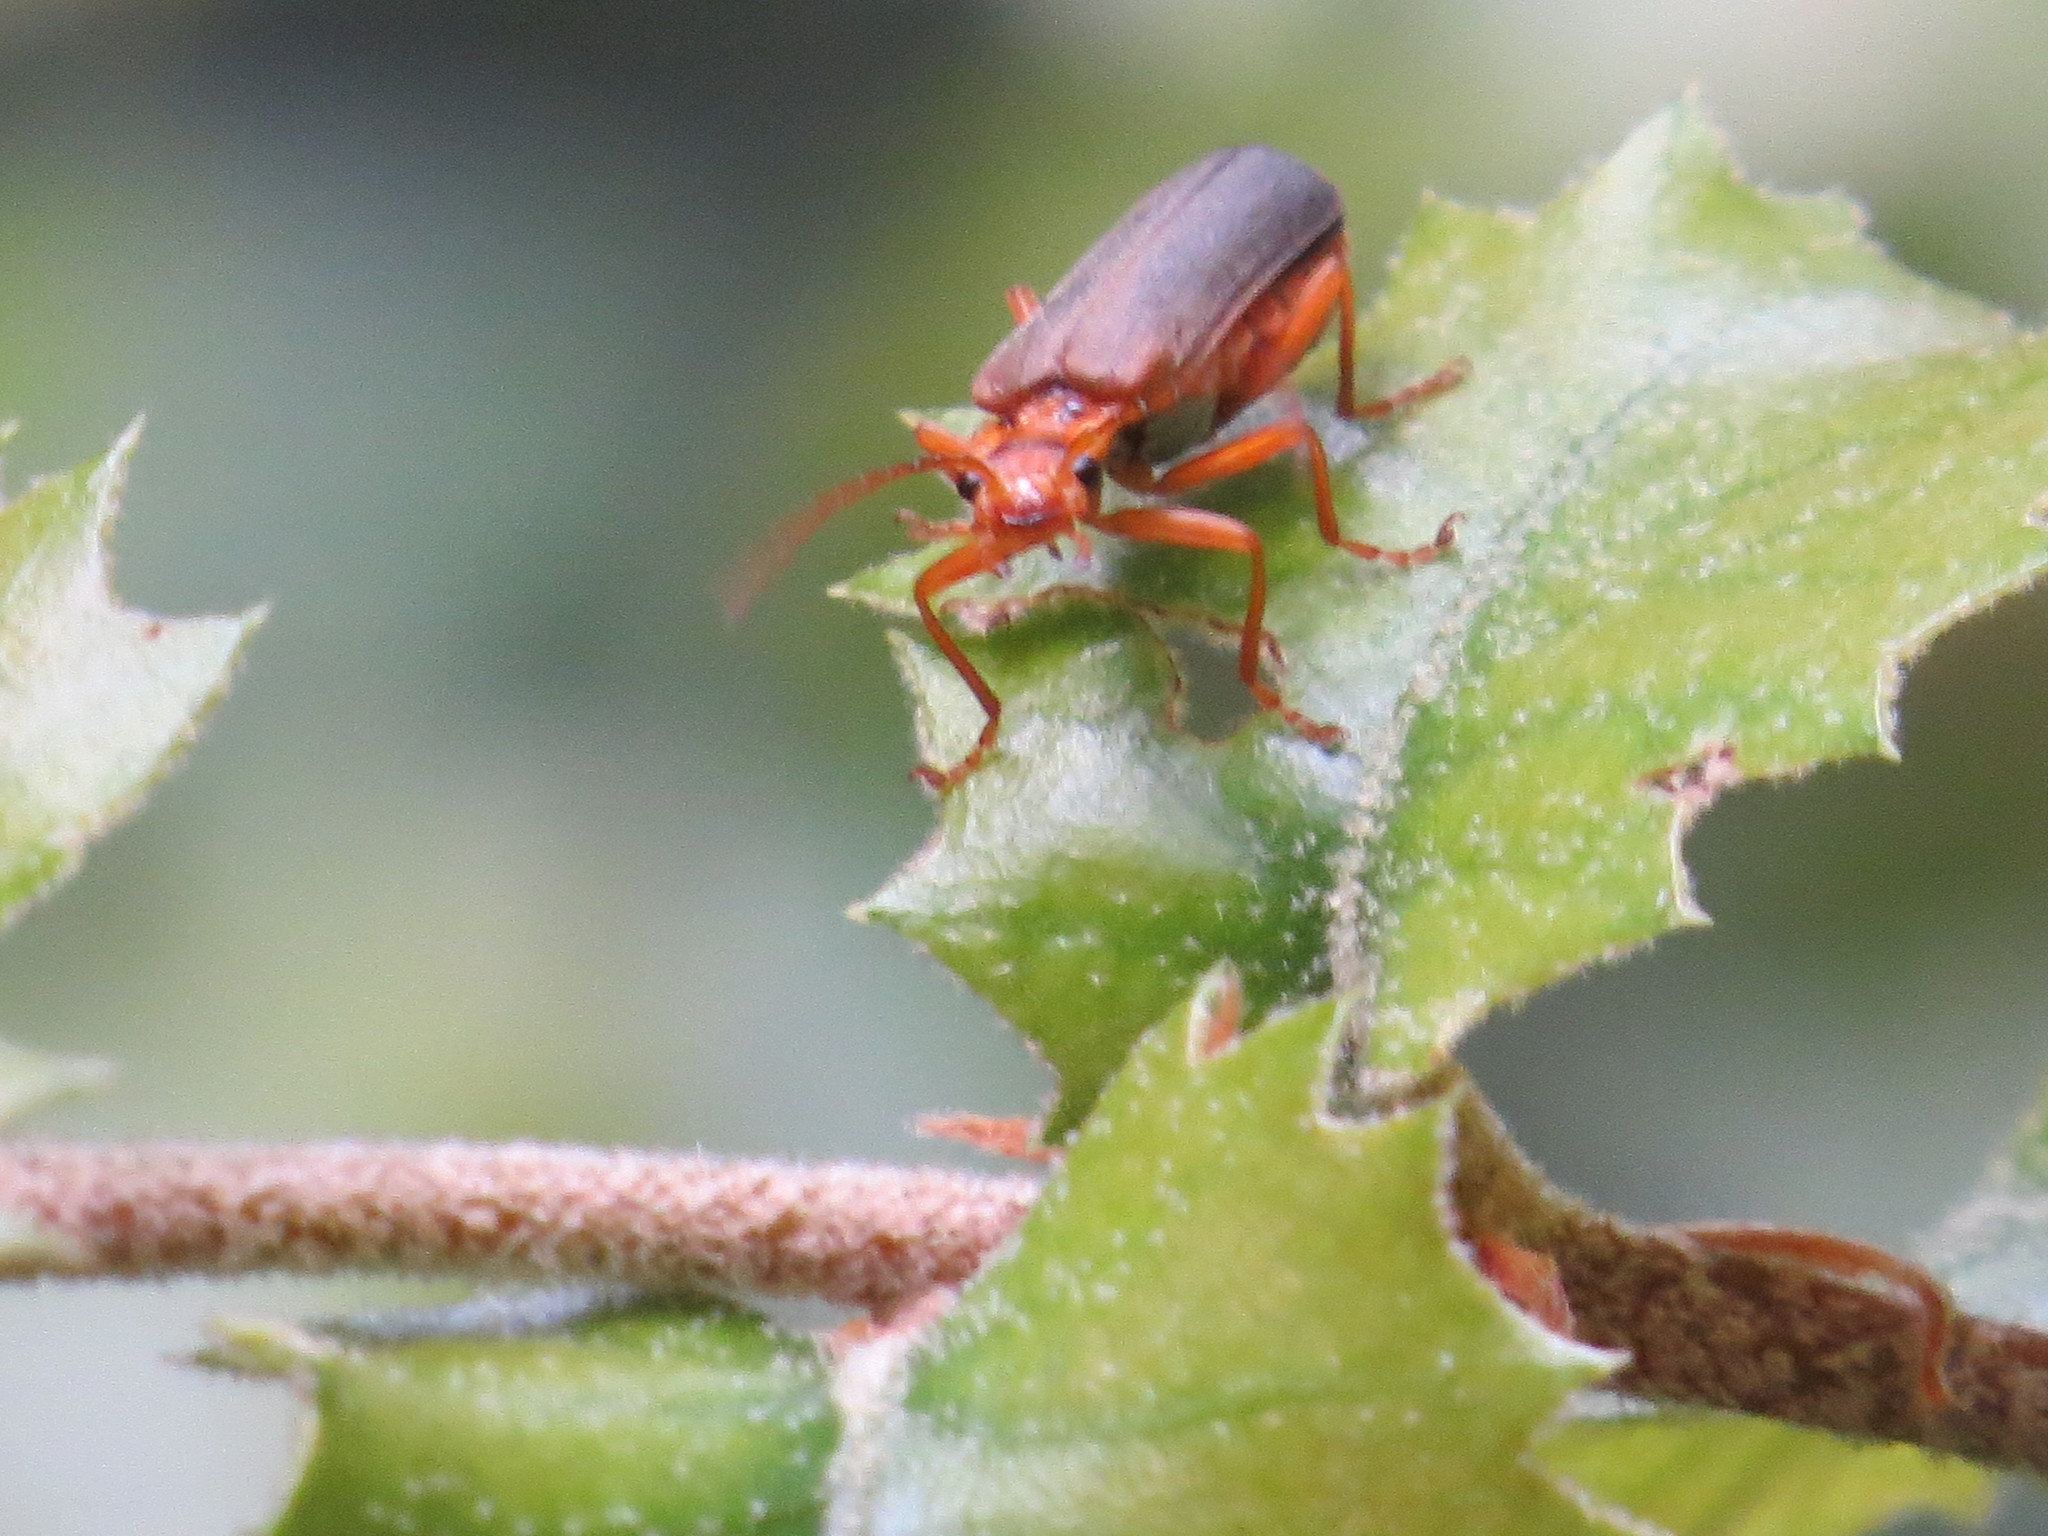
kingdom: Animalia
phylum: Arthropoda
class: Insecta
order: Coleoptera
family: Cantharidae
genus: Podabrus
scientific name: Podabrus binotatus
